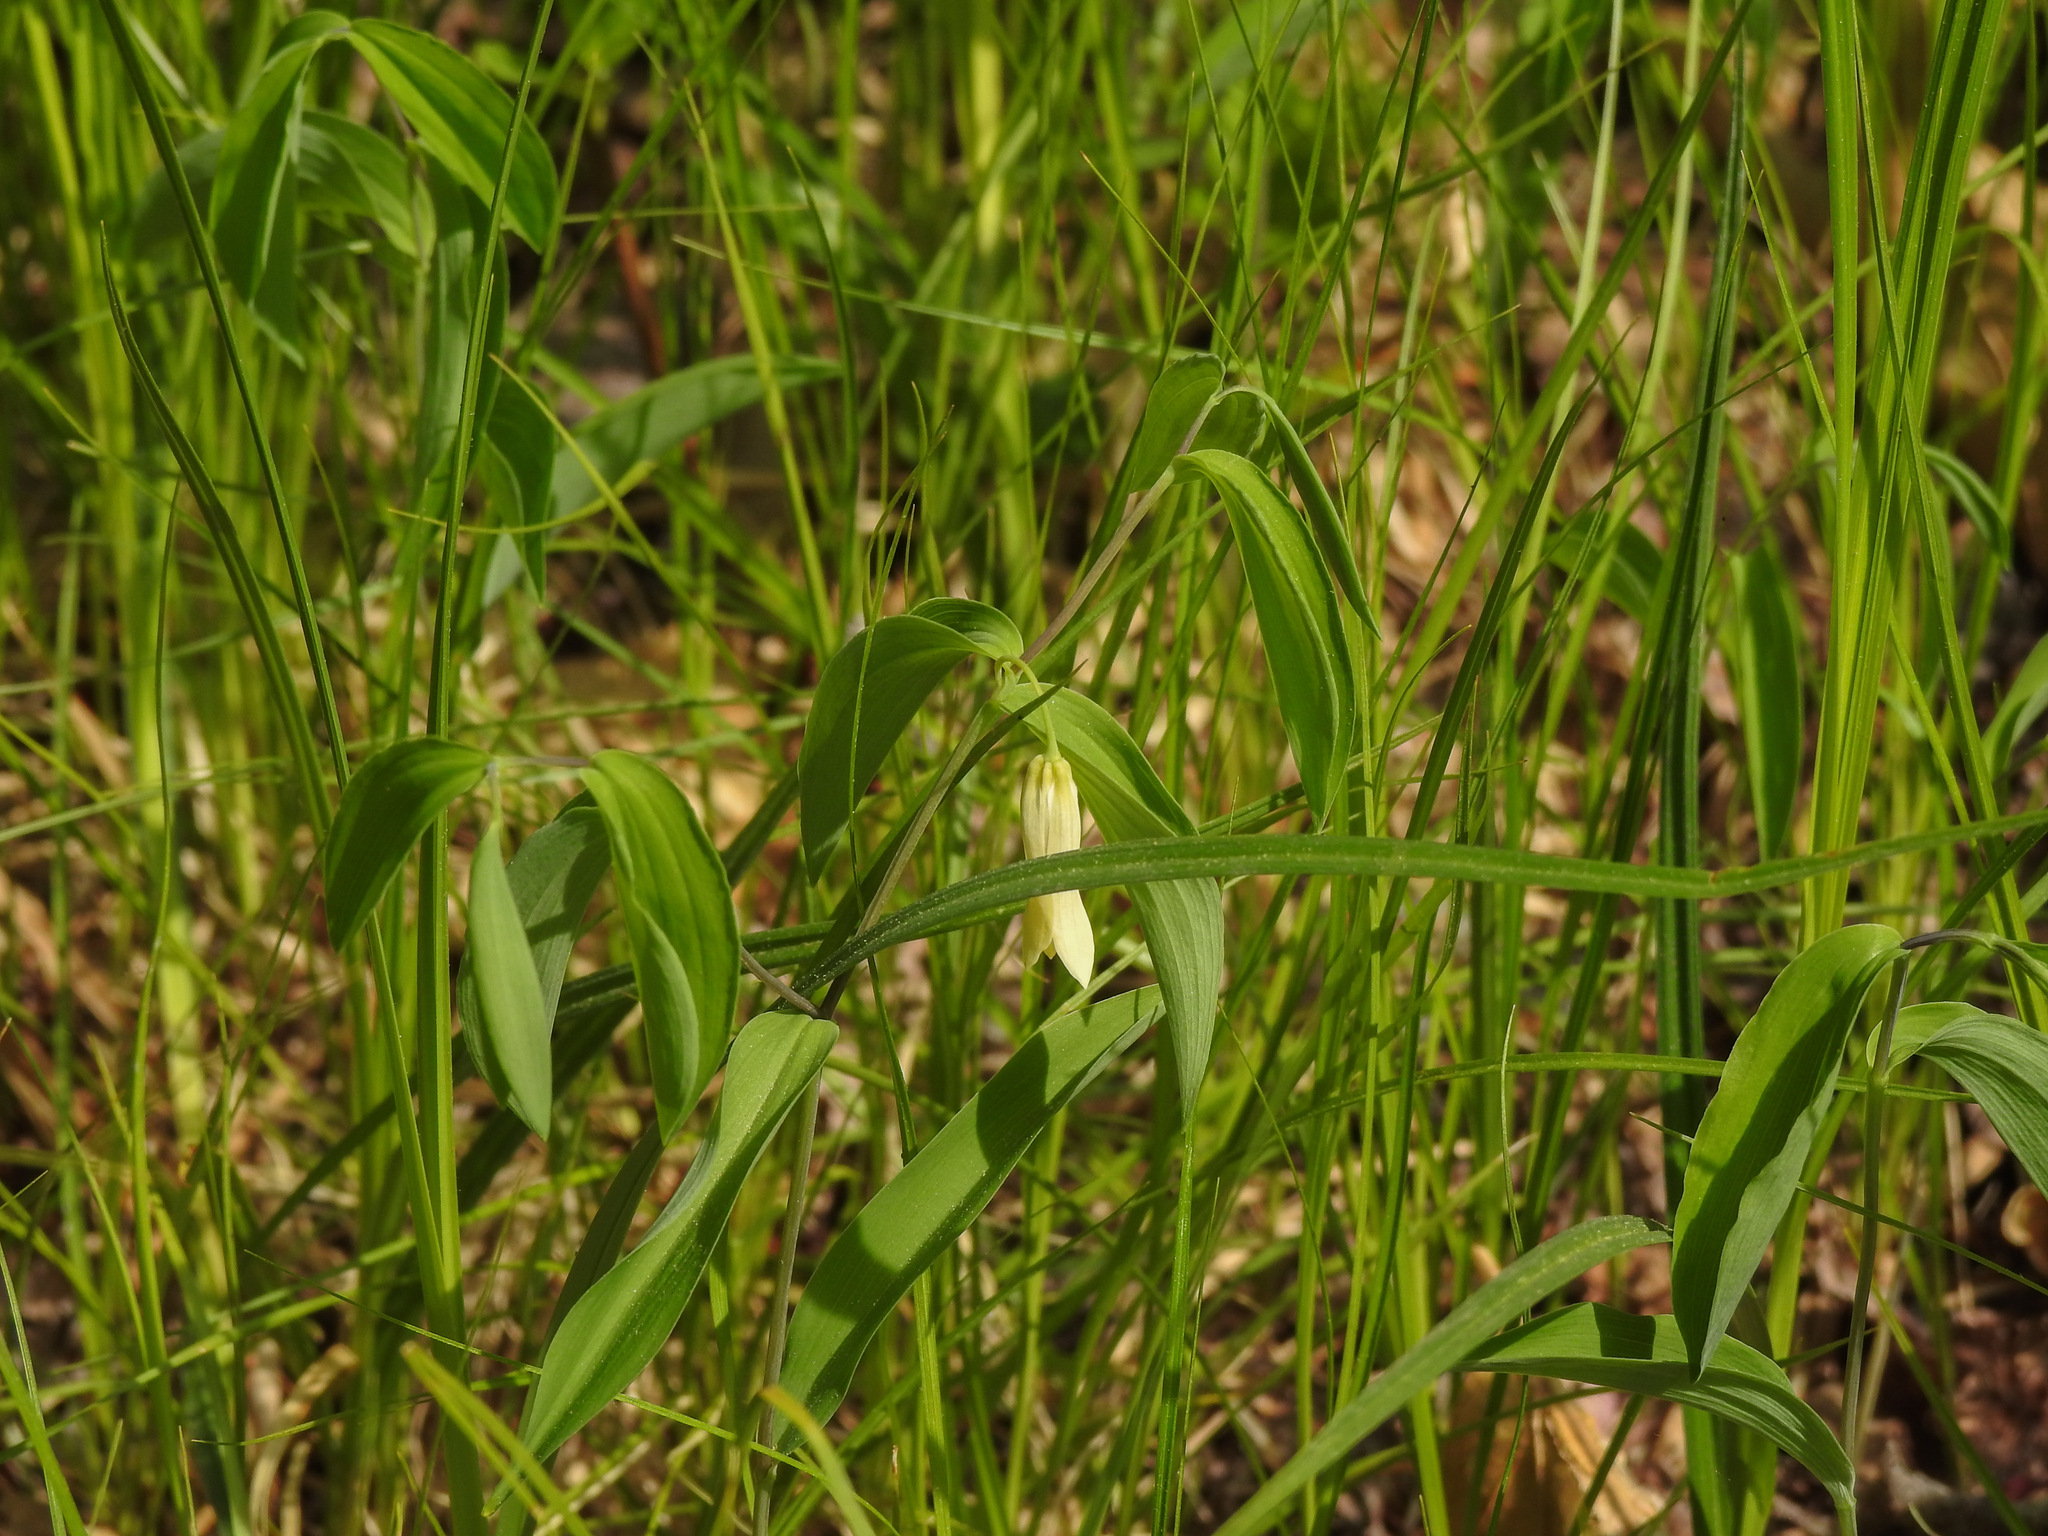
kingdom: Plantae
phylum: Tracheophyta
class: Liliopsida
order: Liliales
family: Colchicaceae
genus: Uvularia
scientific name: Uvularia sessilifolia
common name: Straw-lily
